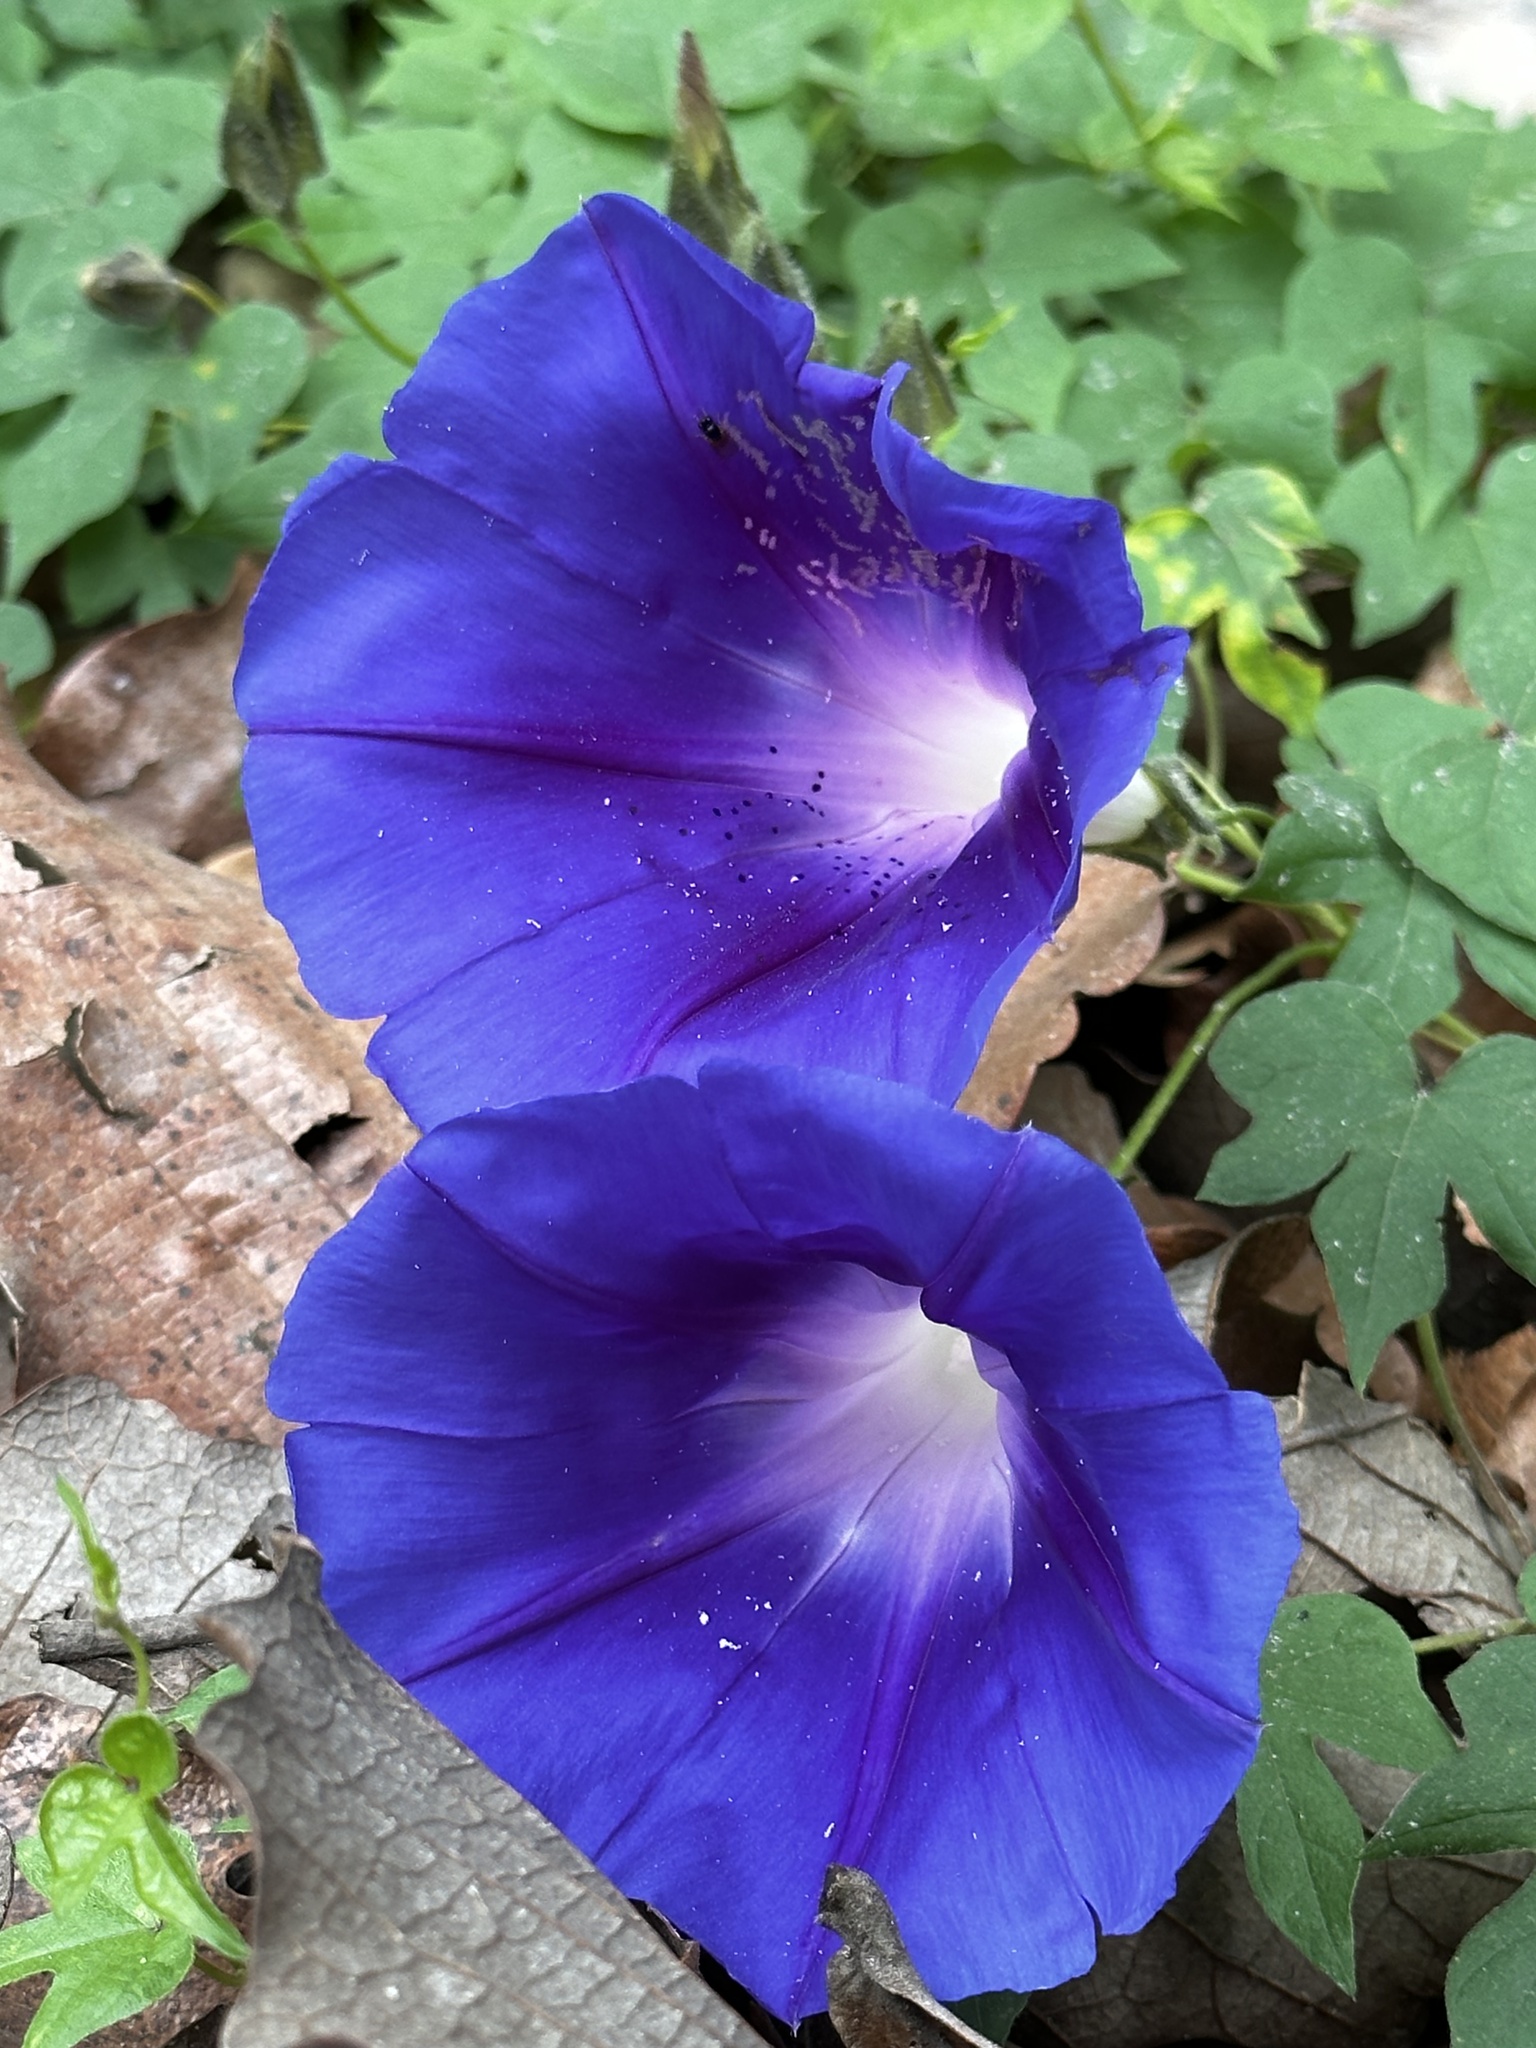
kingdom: Plantae
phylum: Tracheophyta
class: Magnoliopsida
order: Solanales
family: Convolvulaceae
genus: Ipomoea
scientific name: Ipomoea laeta
